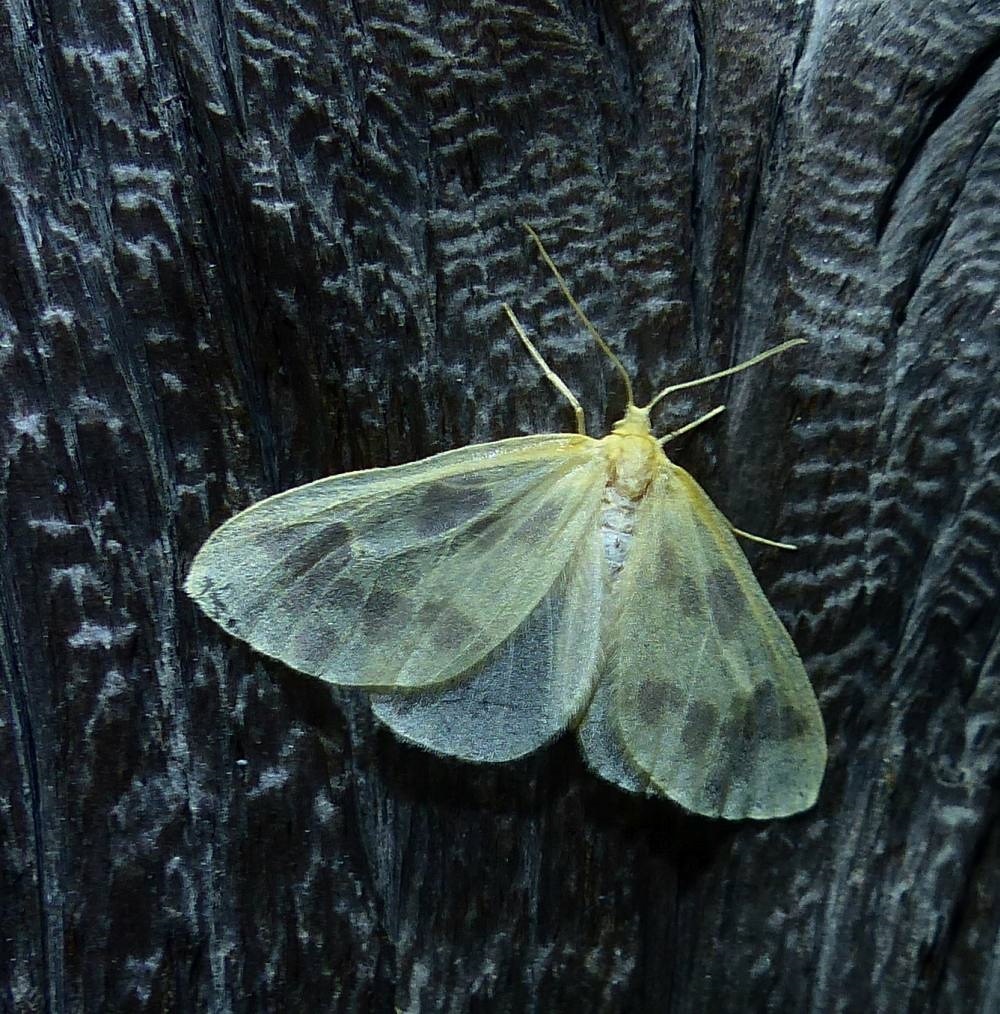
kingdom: Animalia
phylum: Arthropoda
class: Insecta
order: Lepidoptera
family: Geometridae
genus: Eubaphe
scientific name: Eubaphe mendica
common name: Beggar
